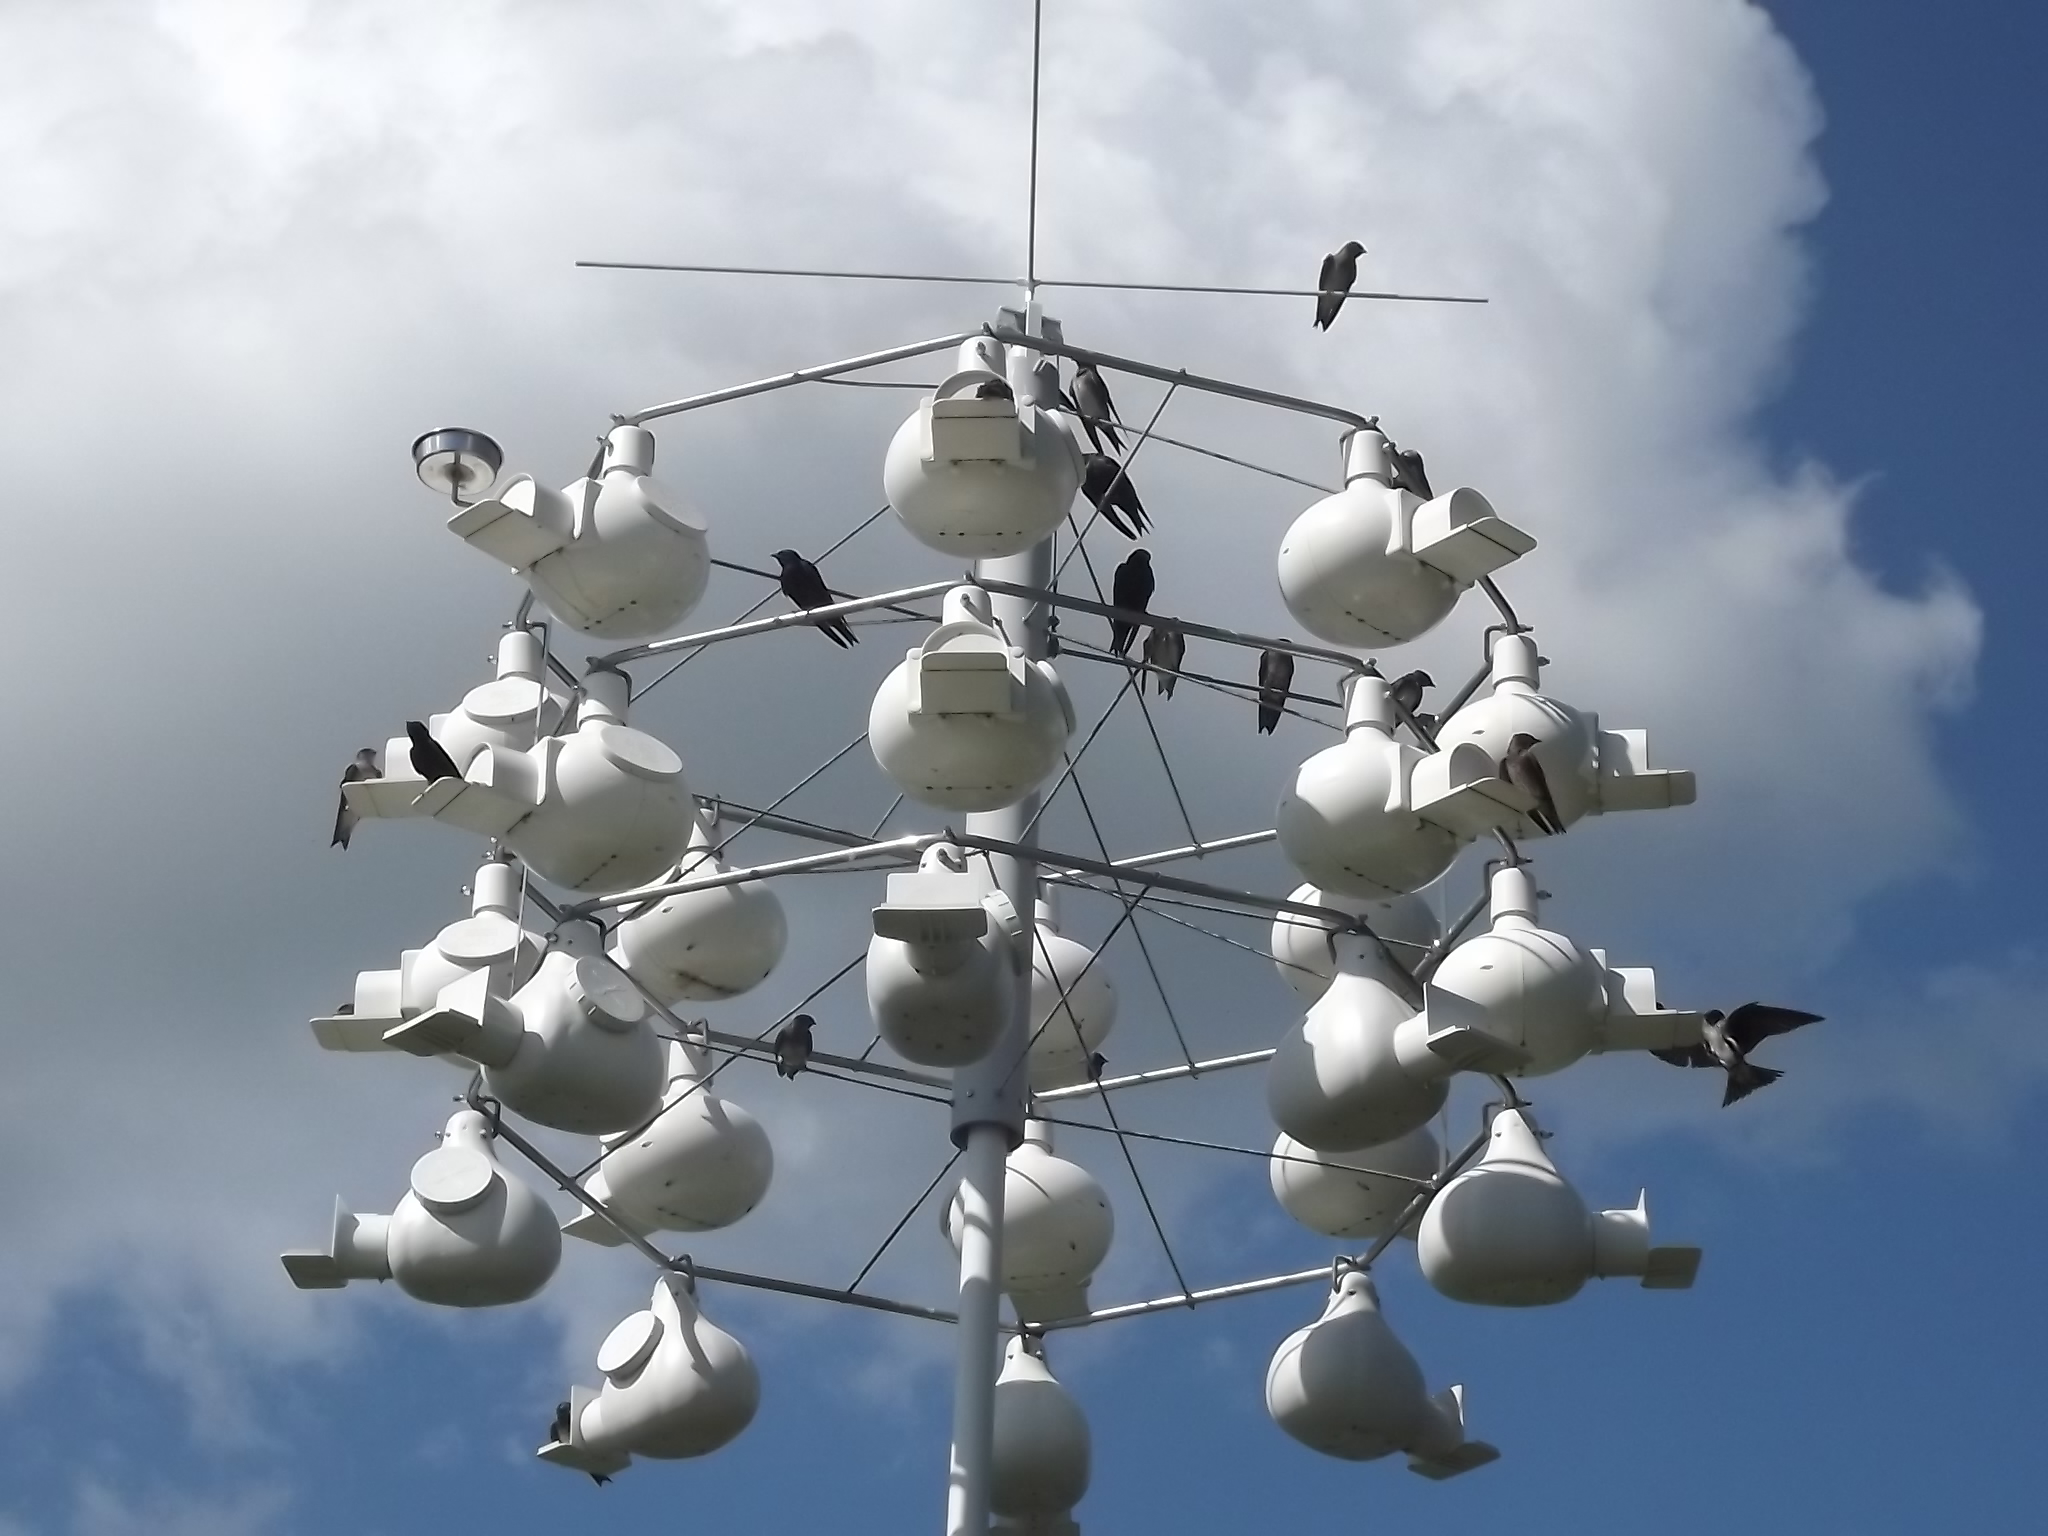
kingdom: Animalia
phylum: Chordata
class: Aves
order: Passeriformes
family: Hirundinidae
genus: Progne
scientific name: Progne subis
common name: Purple martin
